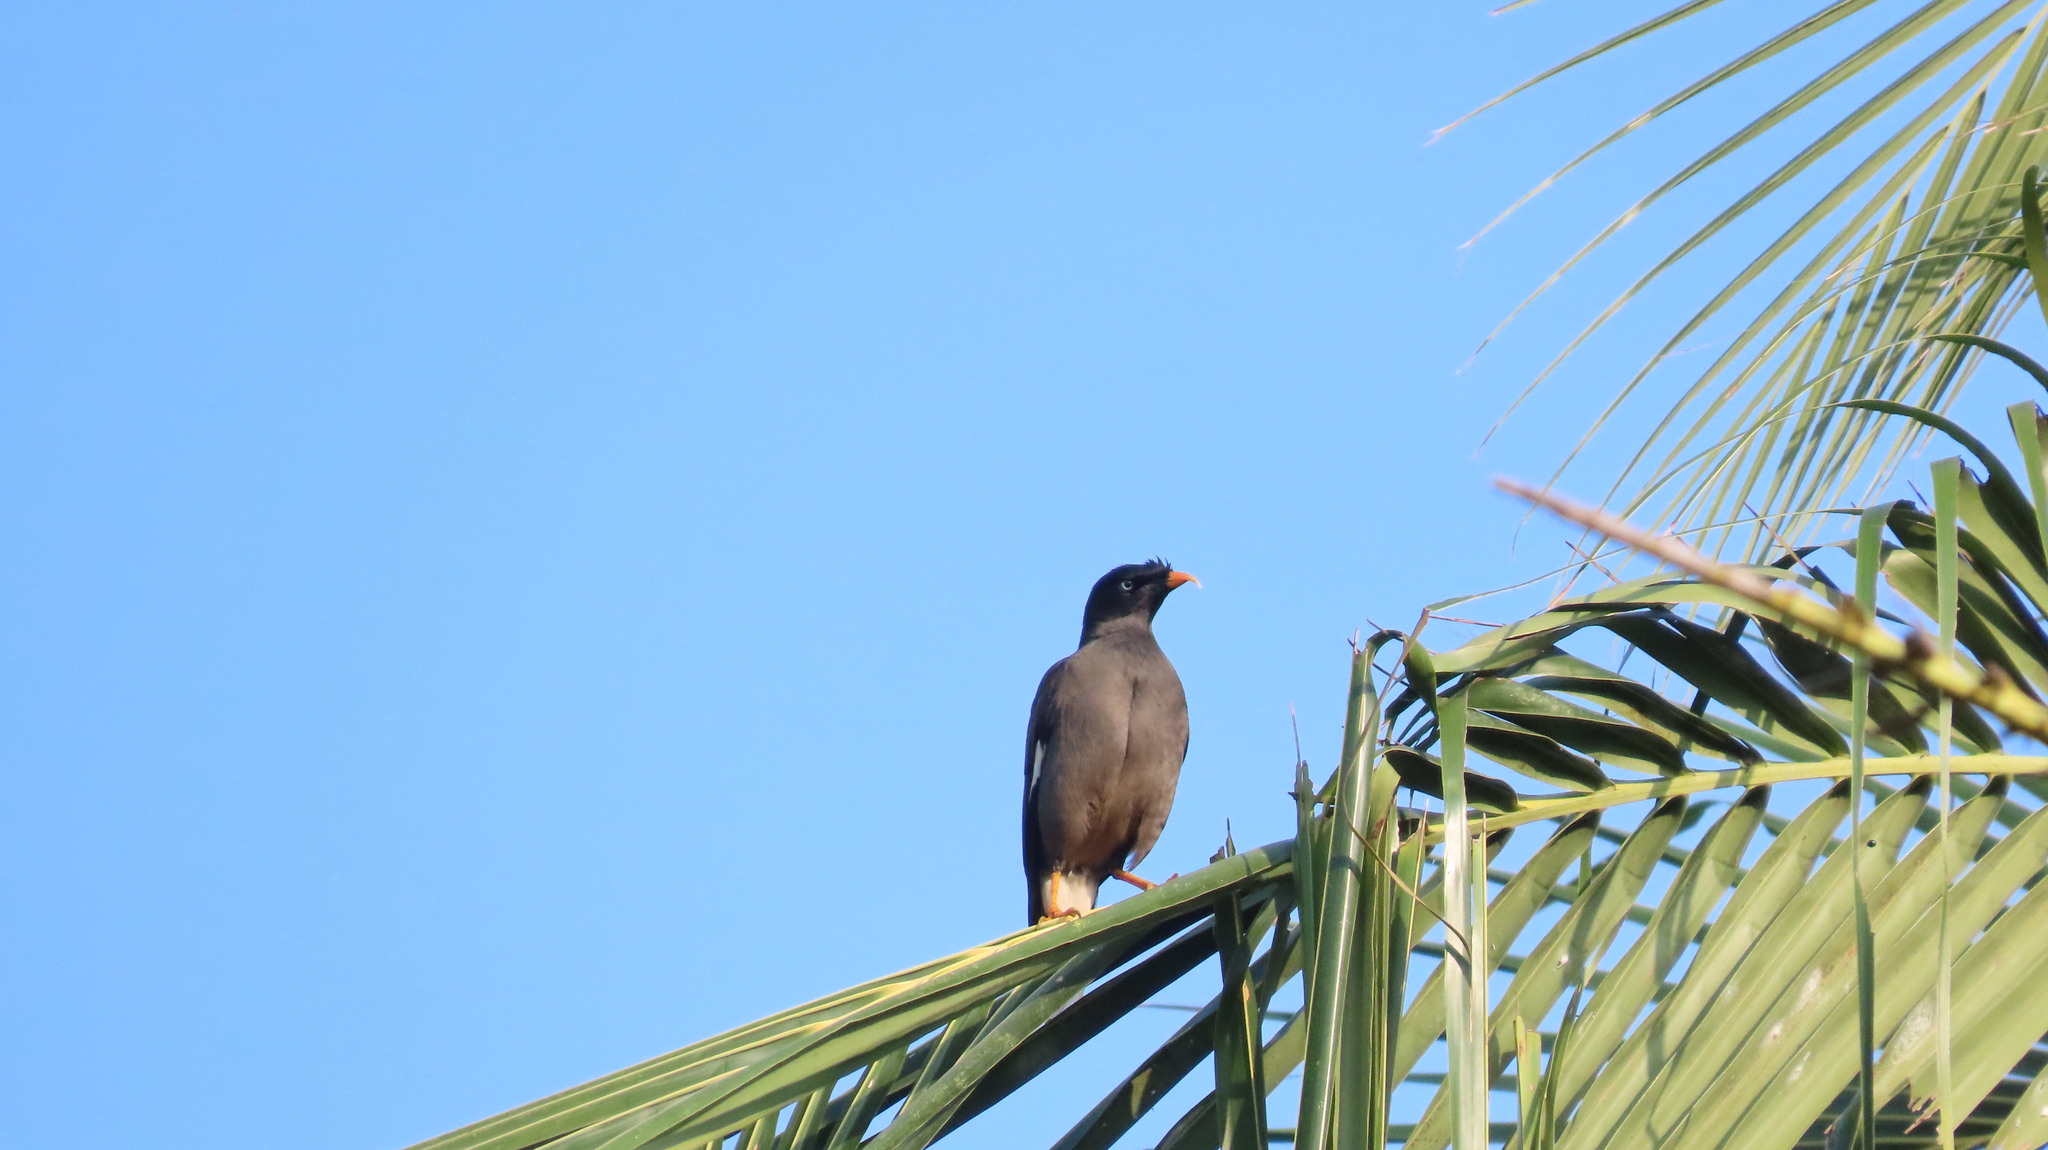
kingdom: Animalia
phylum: Chordata
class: Aves
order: Passeriformes
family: Sturnidae
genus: Acridotheres
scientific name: Acridotheres fuscus
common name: Jungle myna
